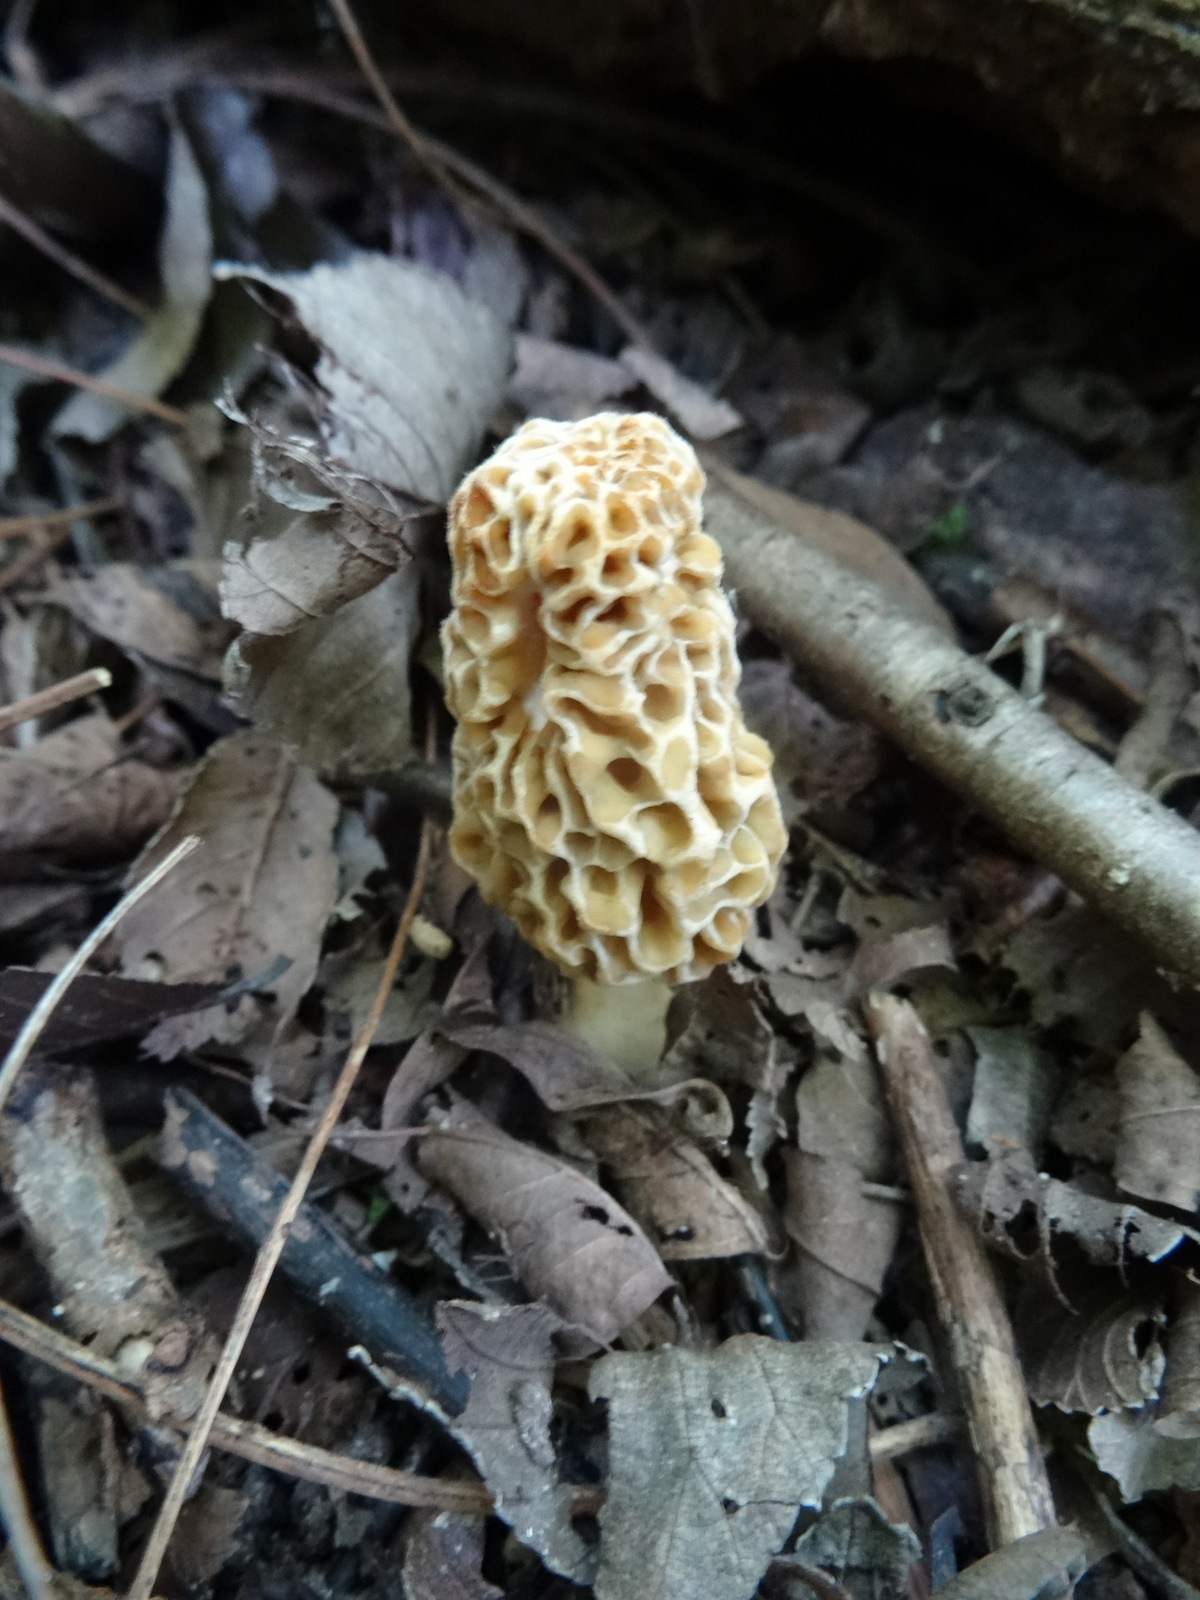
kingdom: Fungi
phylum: Ascomycota
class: Pezizomycetes
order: Pezizales
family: Morchellaceae
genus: Morchella
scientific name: Morchella americana
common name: White morel
